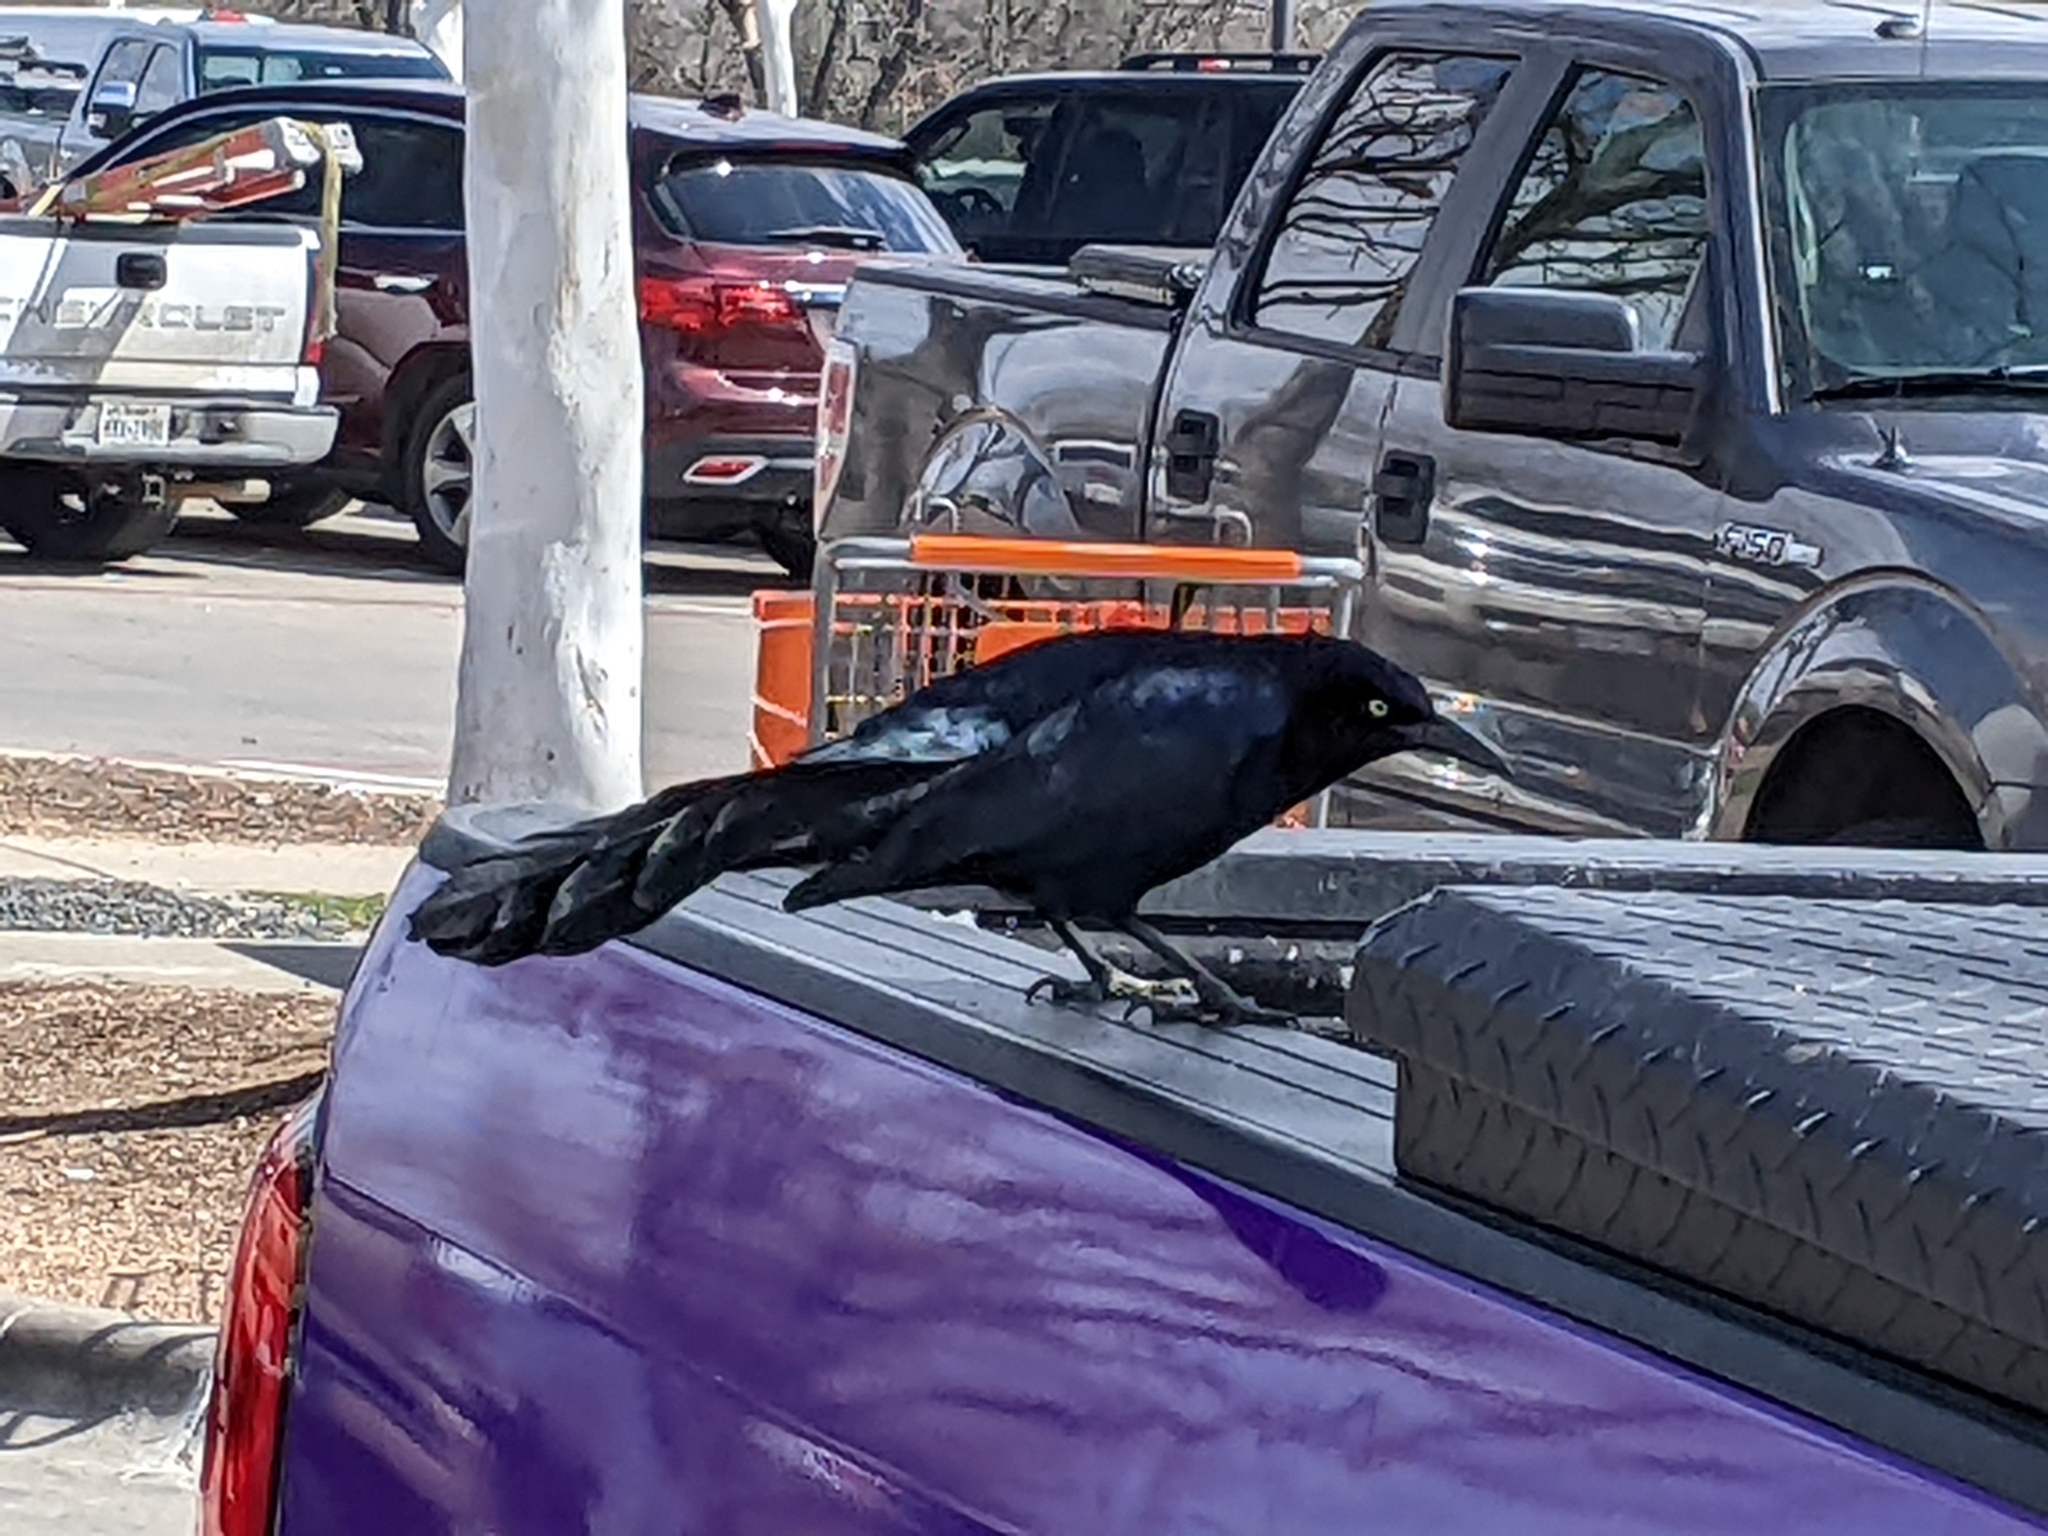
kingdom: Animalia
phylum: Chordata
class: Aves
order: Passeriformes
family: Icteridae
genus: Quiscalus
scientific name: Quiscalus mexicanus
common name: Great-tailed grackle
